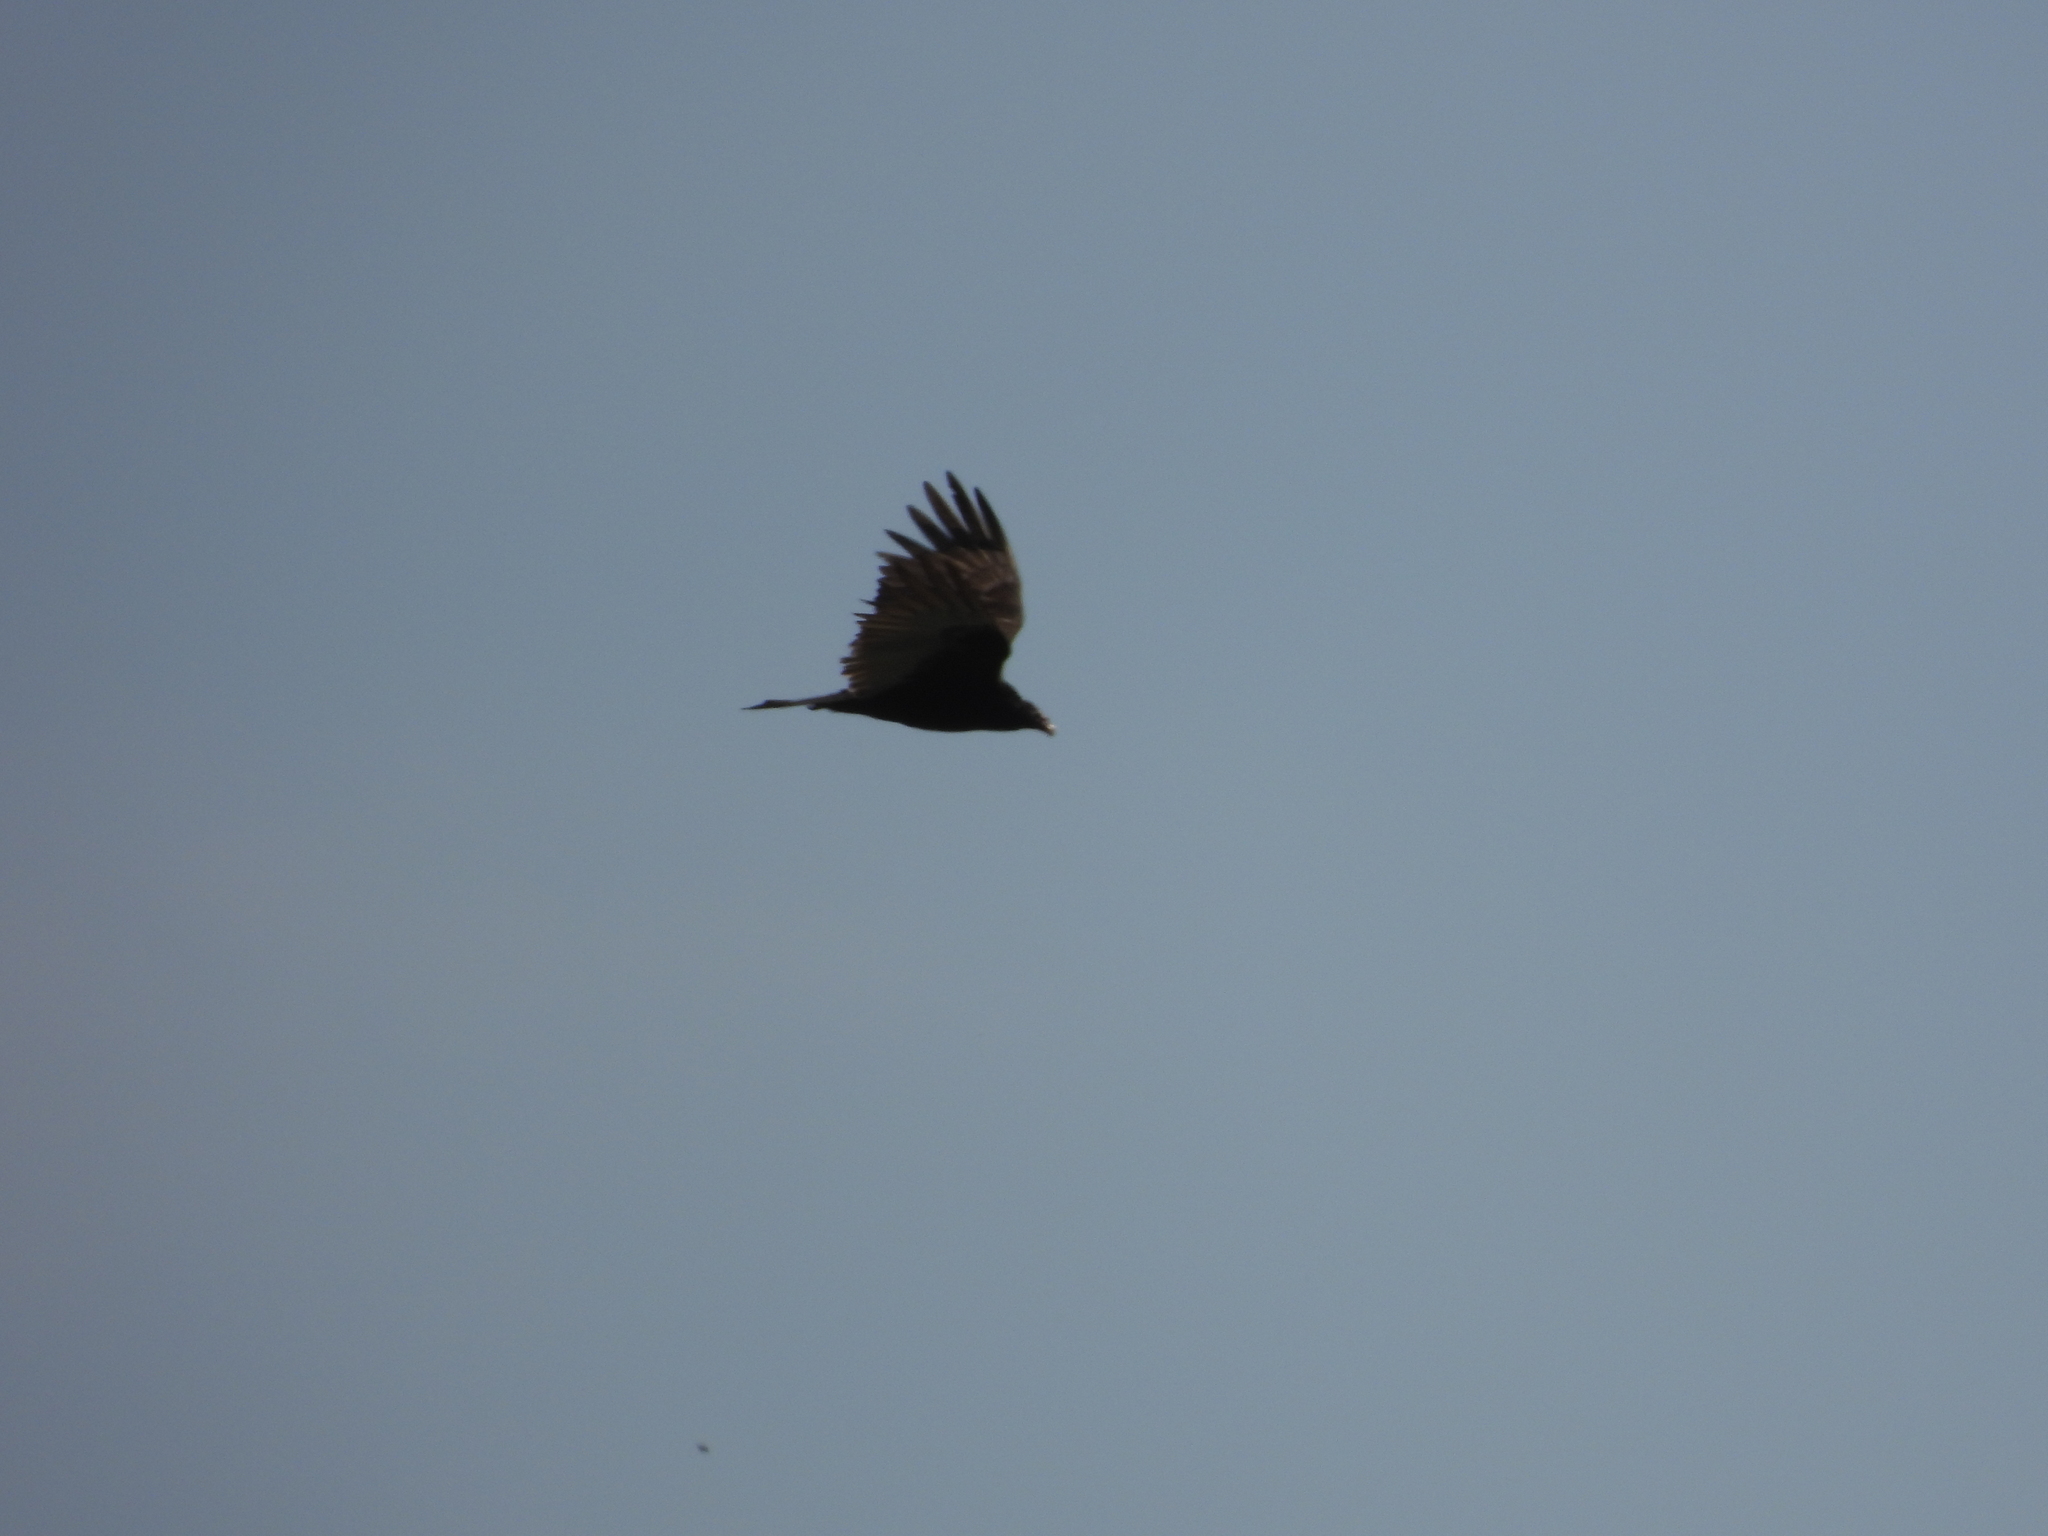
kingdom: Animalia
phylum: Chordata
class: Aves
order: Accipitriformes
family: Cathartidae
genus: Cathartes
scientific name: Cathartes aura
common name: Turkey vulture
